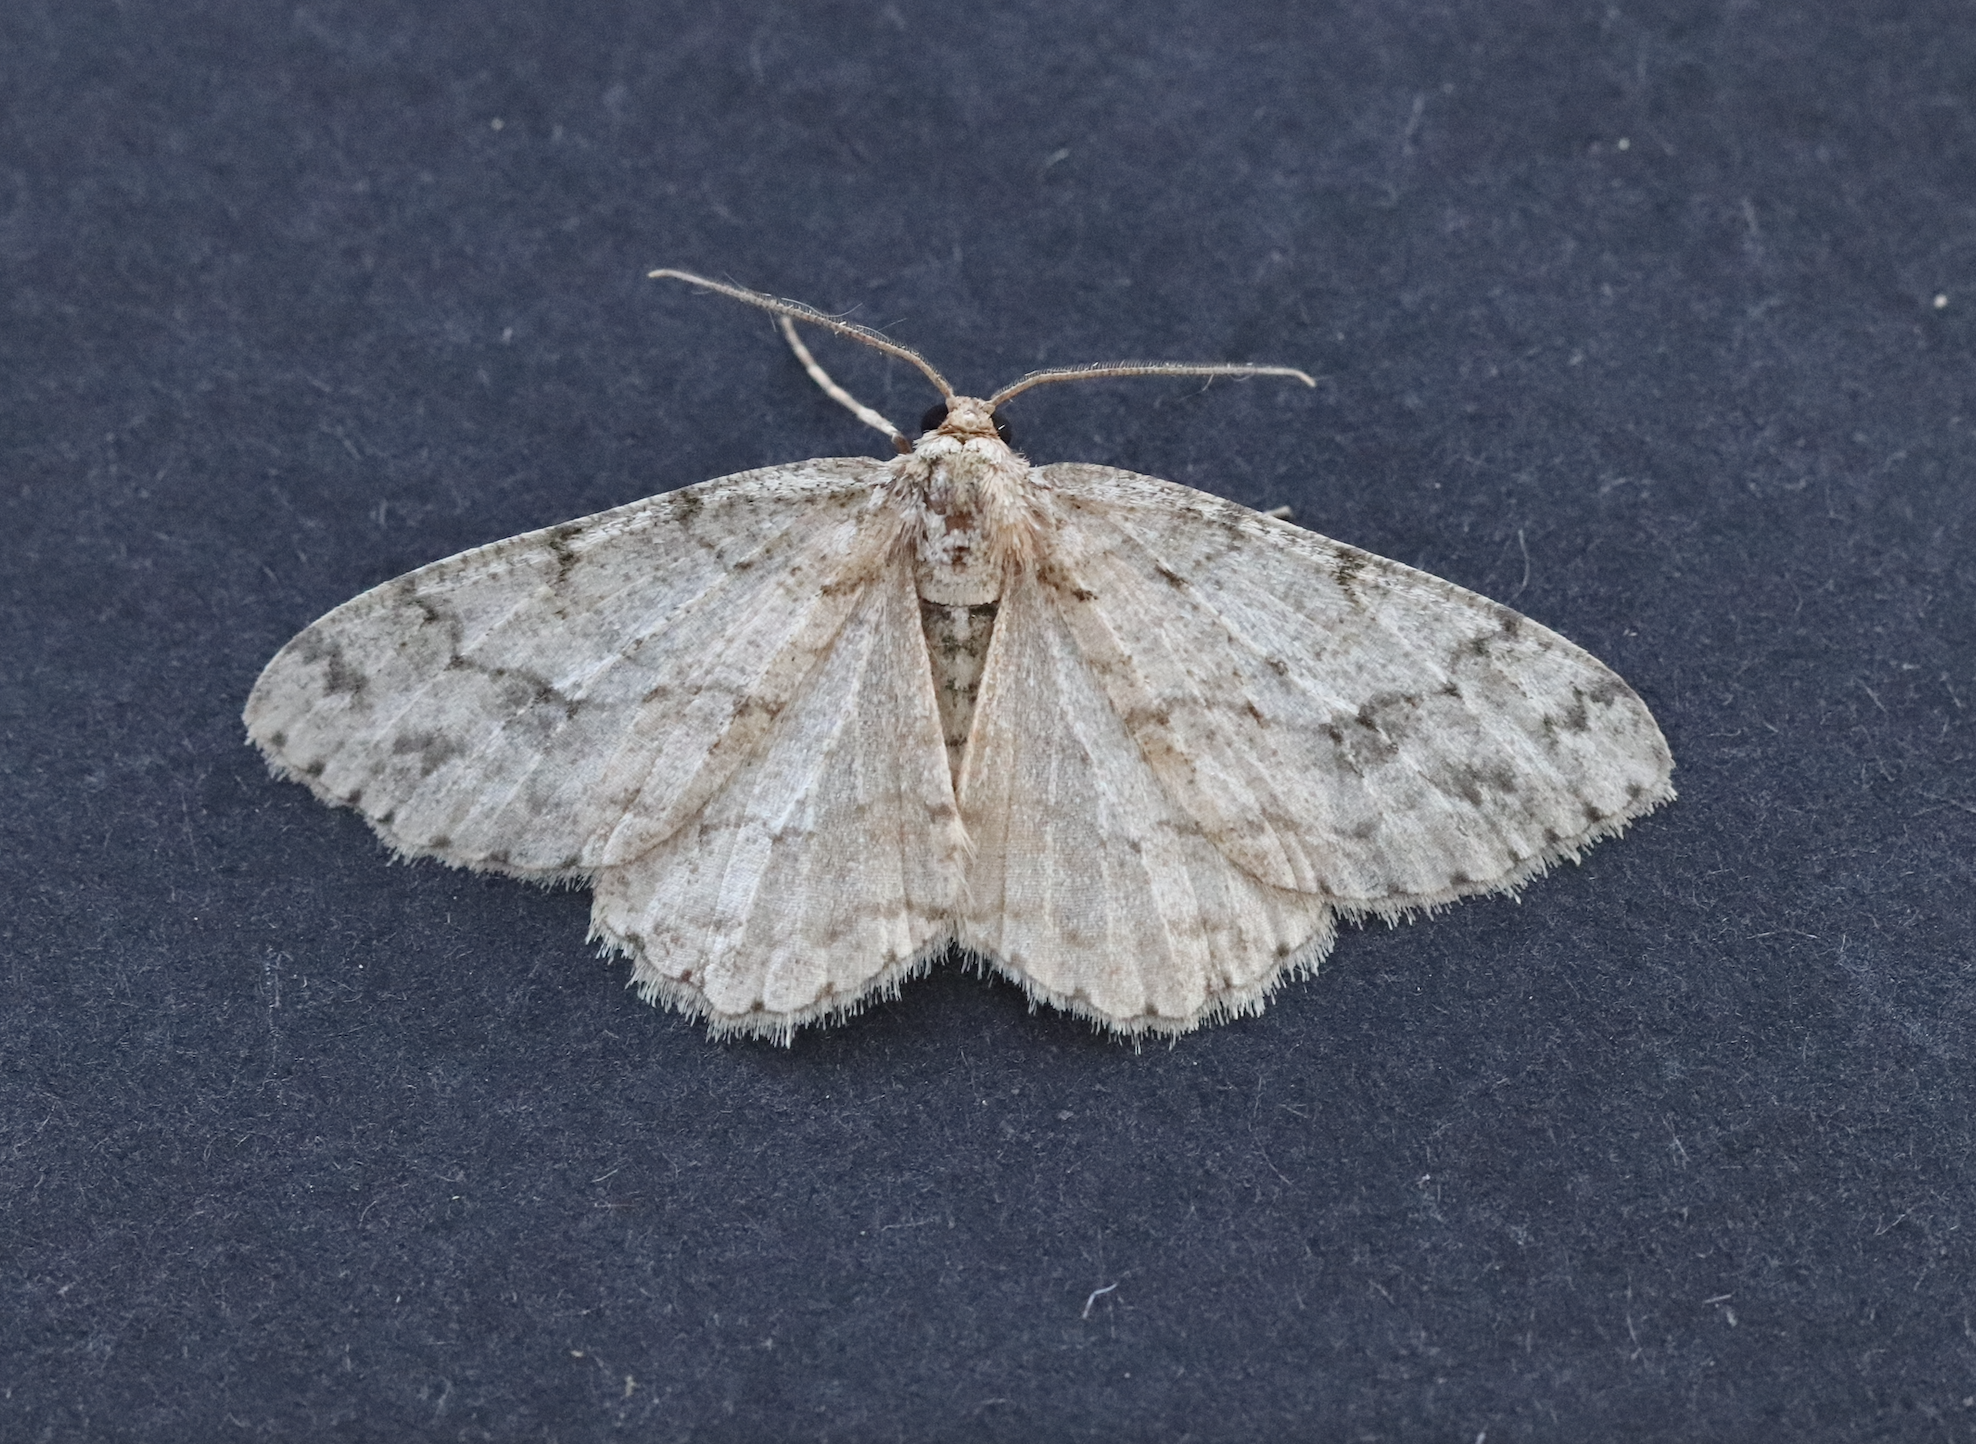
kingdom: Animalia
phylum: Arthropoda
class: Insecta
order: Lepidoptera
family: Geometridae
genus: Ectropis
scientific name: Ectropis crepuscularia
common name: Engrailed
